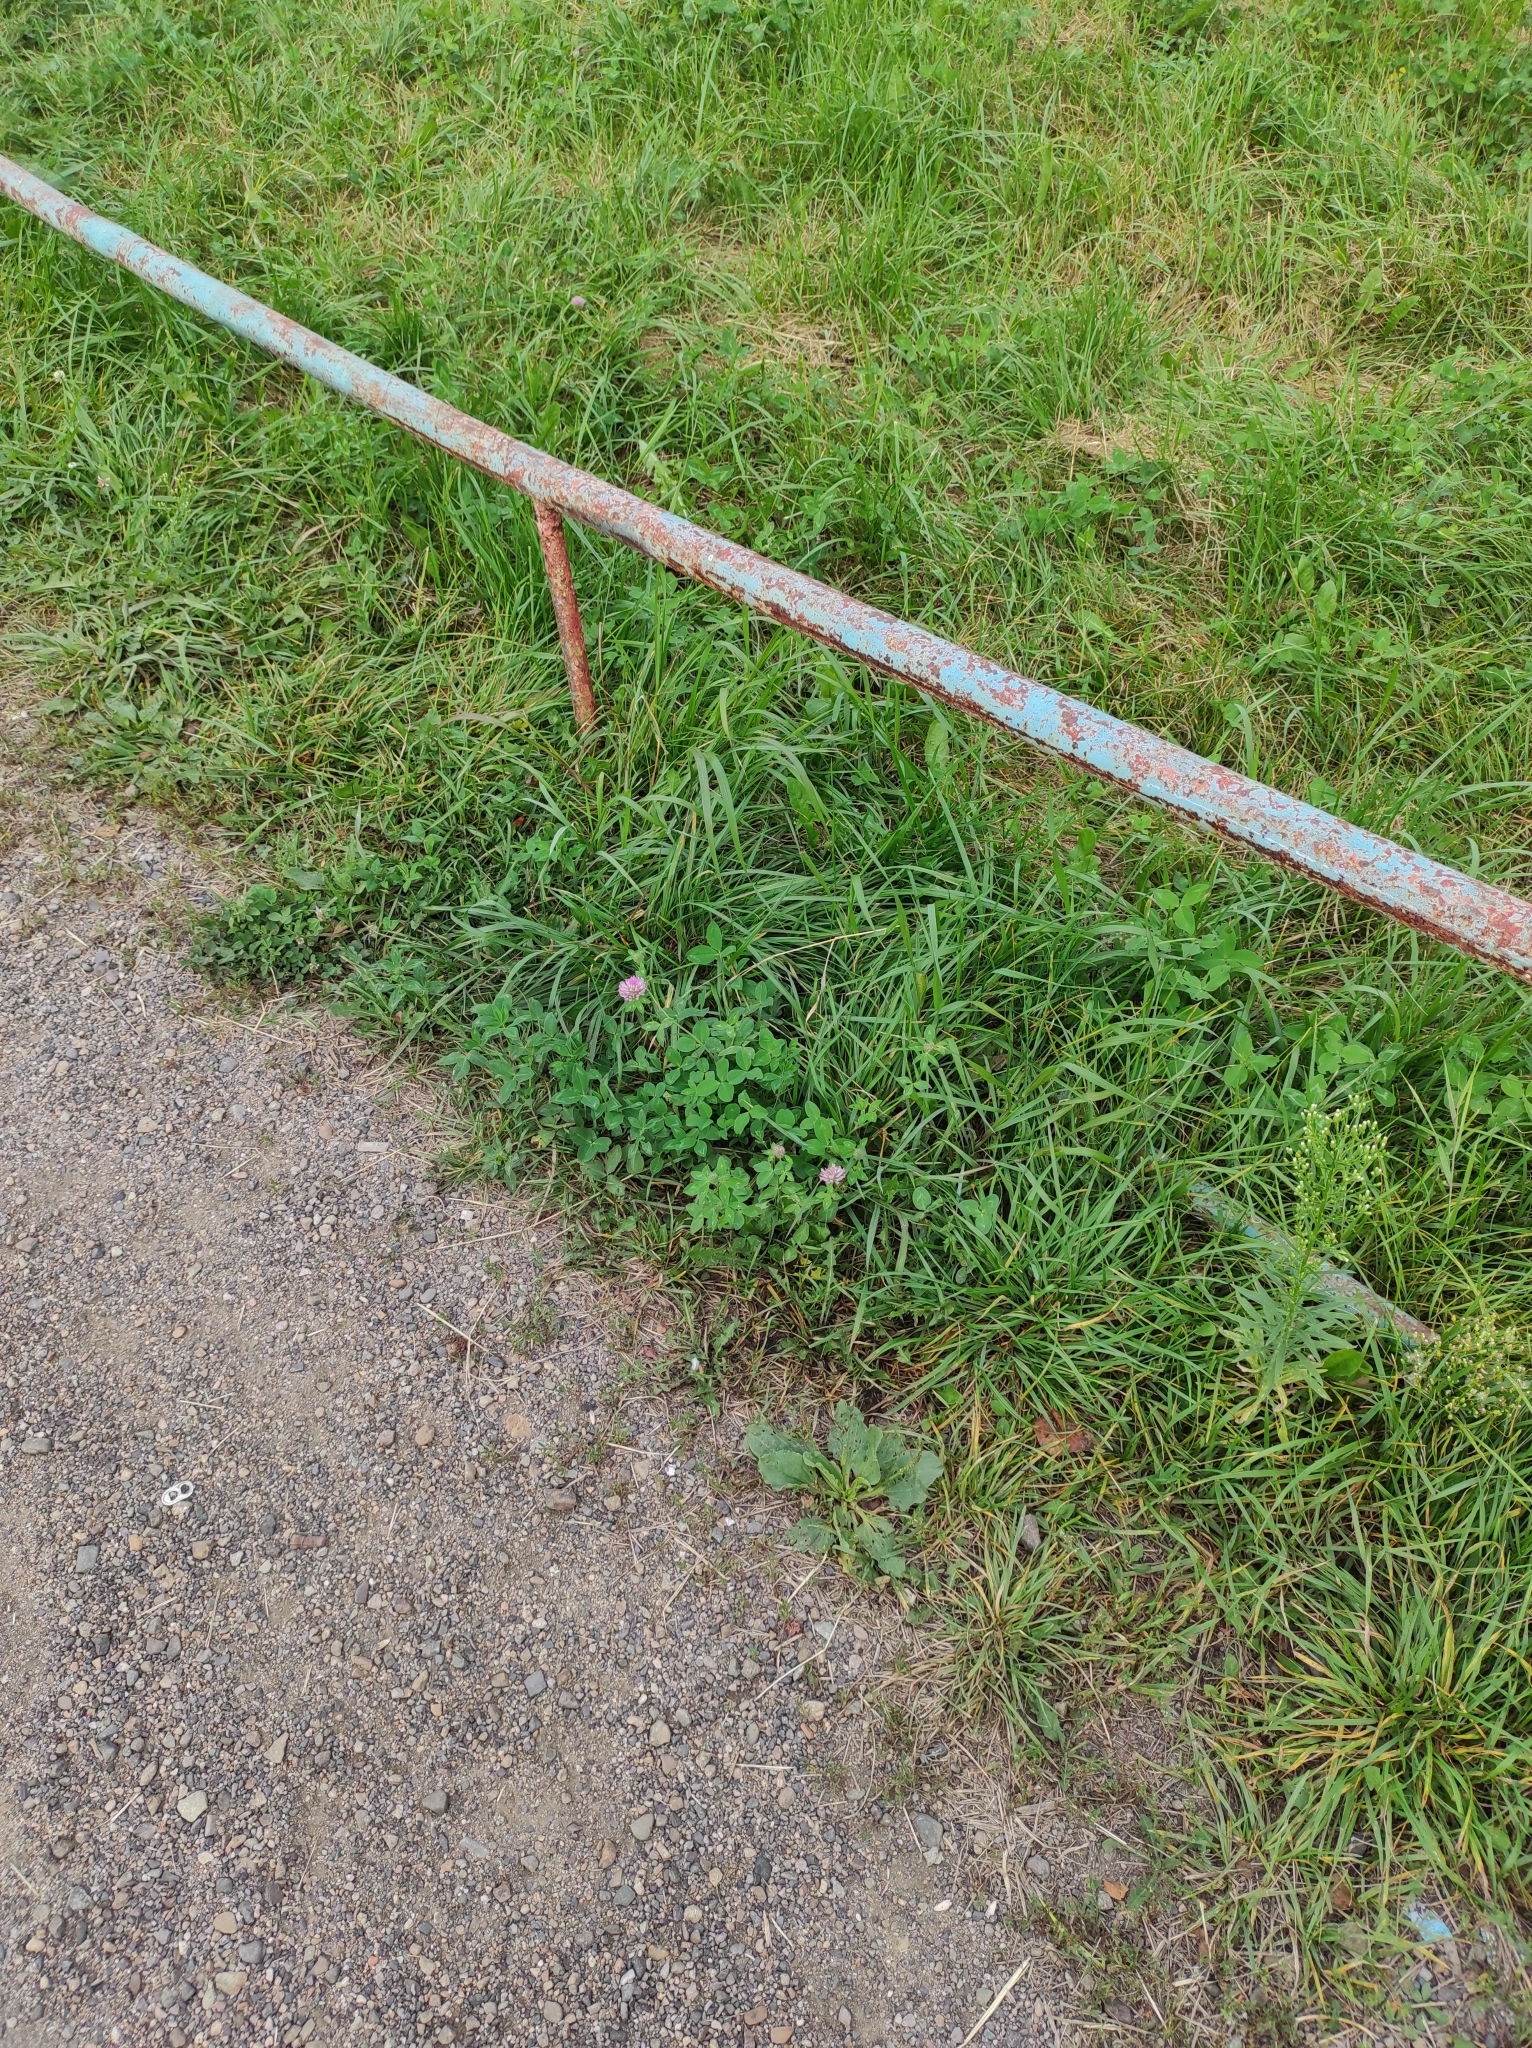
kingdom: Plantae
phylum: Tracheophyta
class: Magnoliopsida
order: Fabales
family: Fabaceae
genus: Trifolium
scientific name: Trifolium pratense
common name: Red clover
